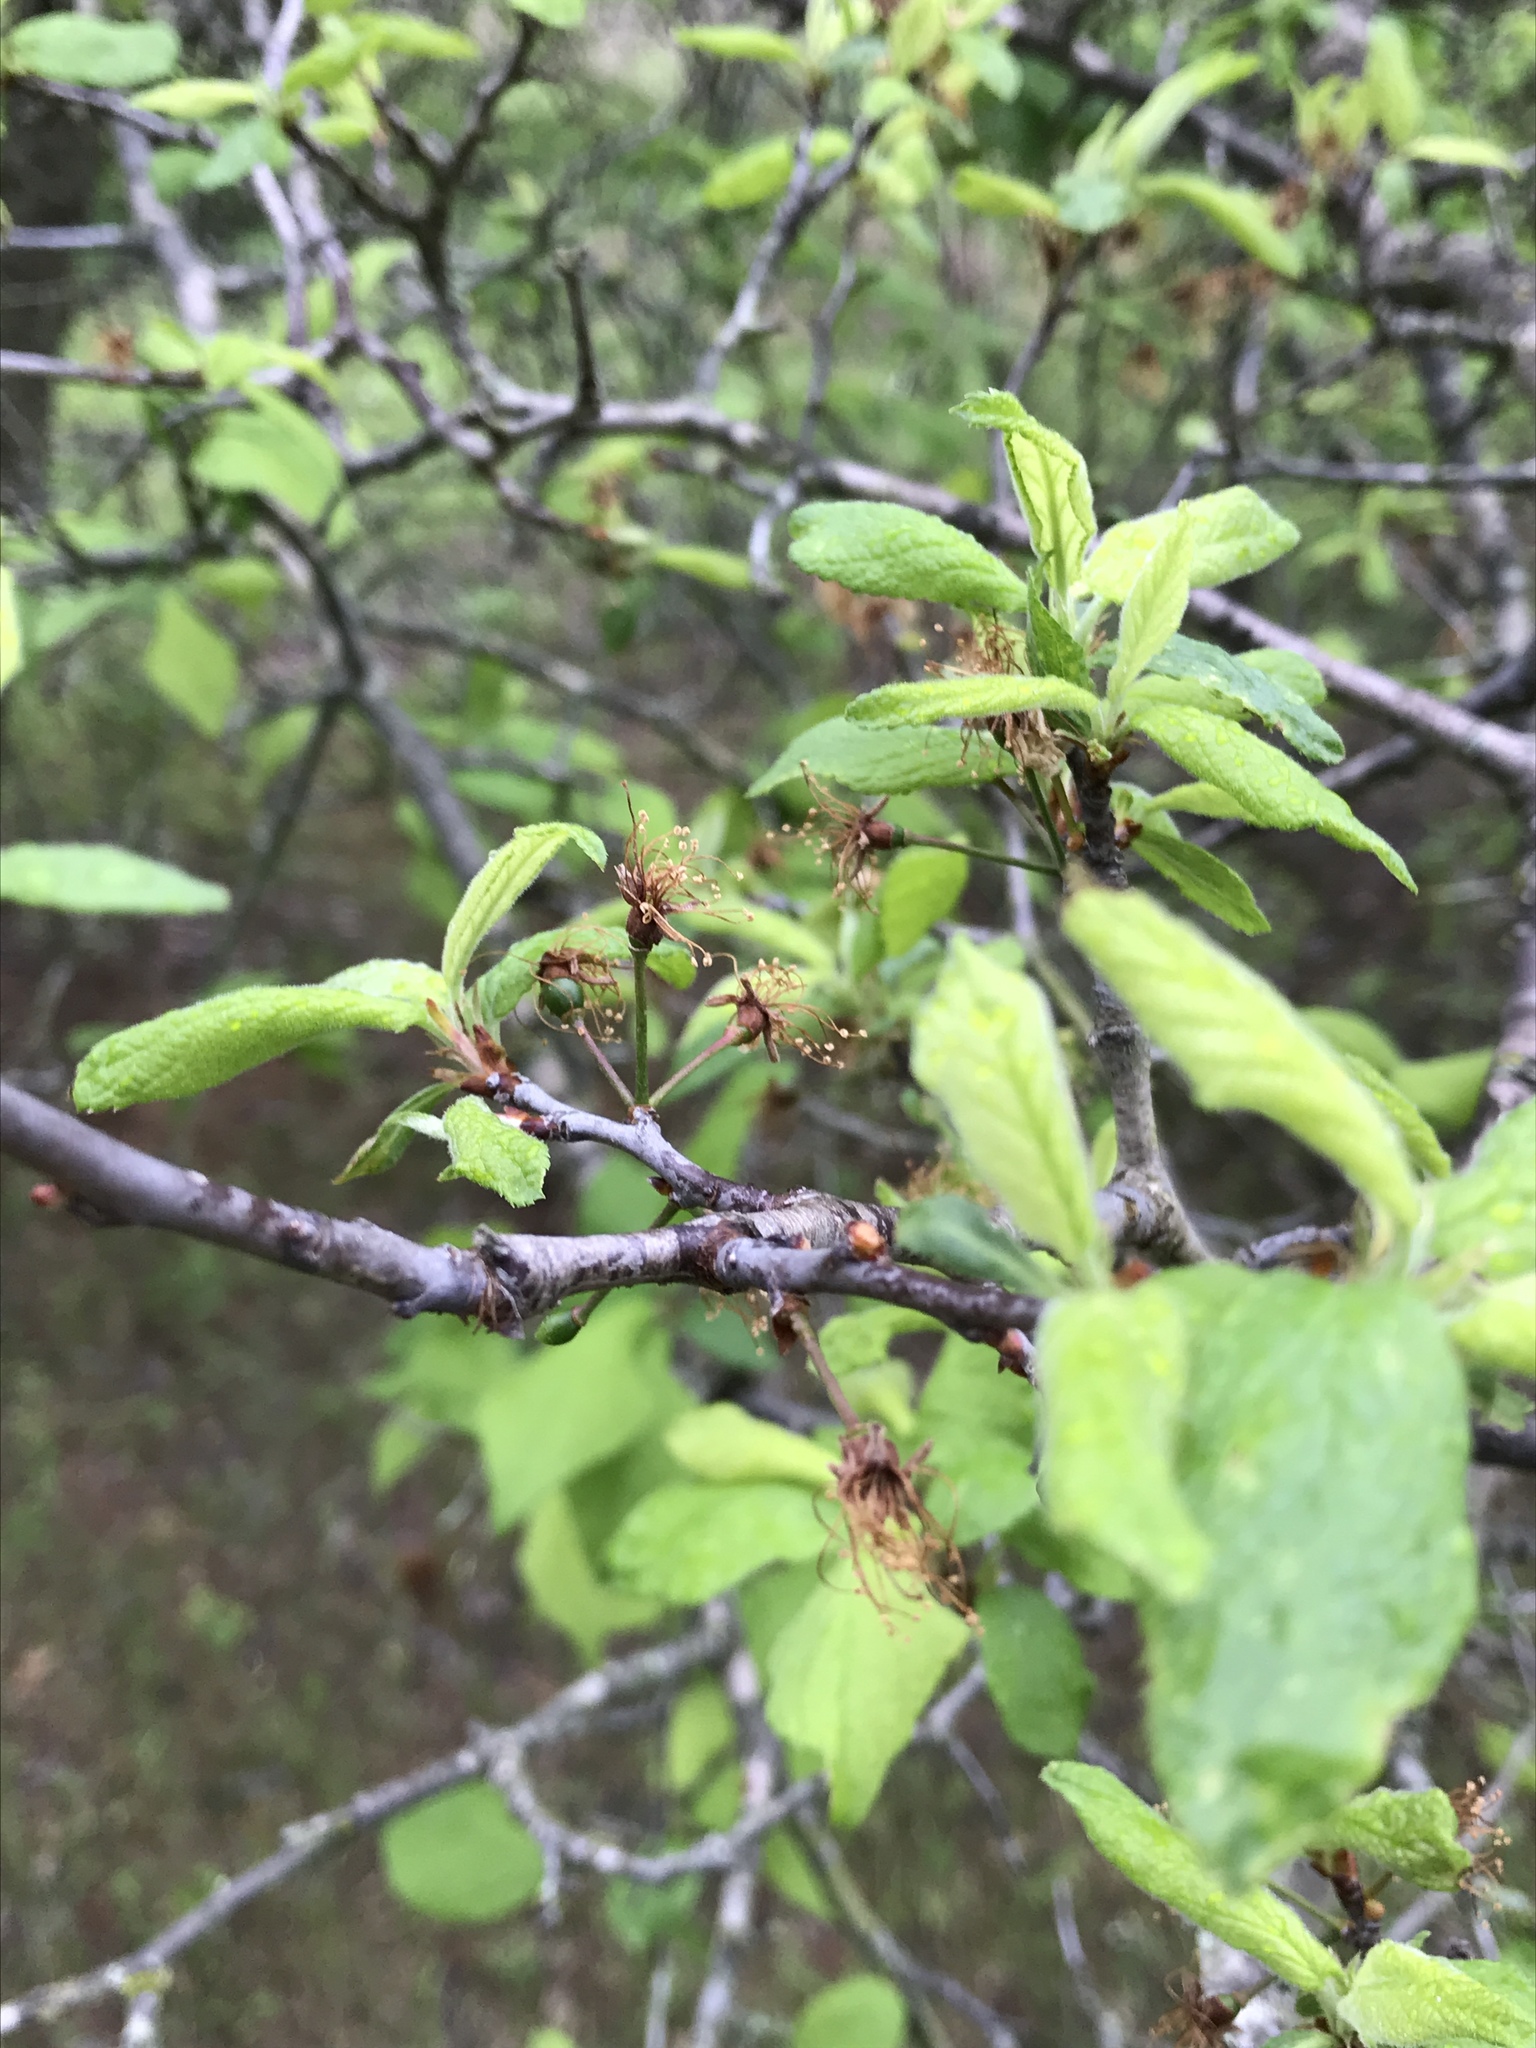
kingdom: Plantae
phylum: Tracheophyta
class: Magnoliopsida
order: Rosales
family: Rosaceae
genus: Prunus
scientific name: Prunus mexicana
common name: Mexican plum
